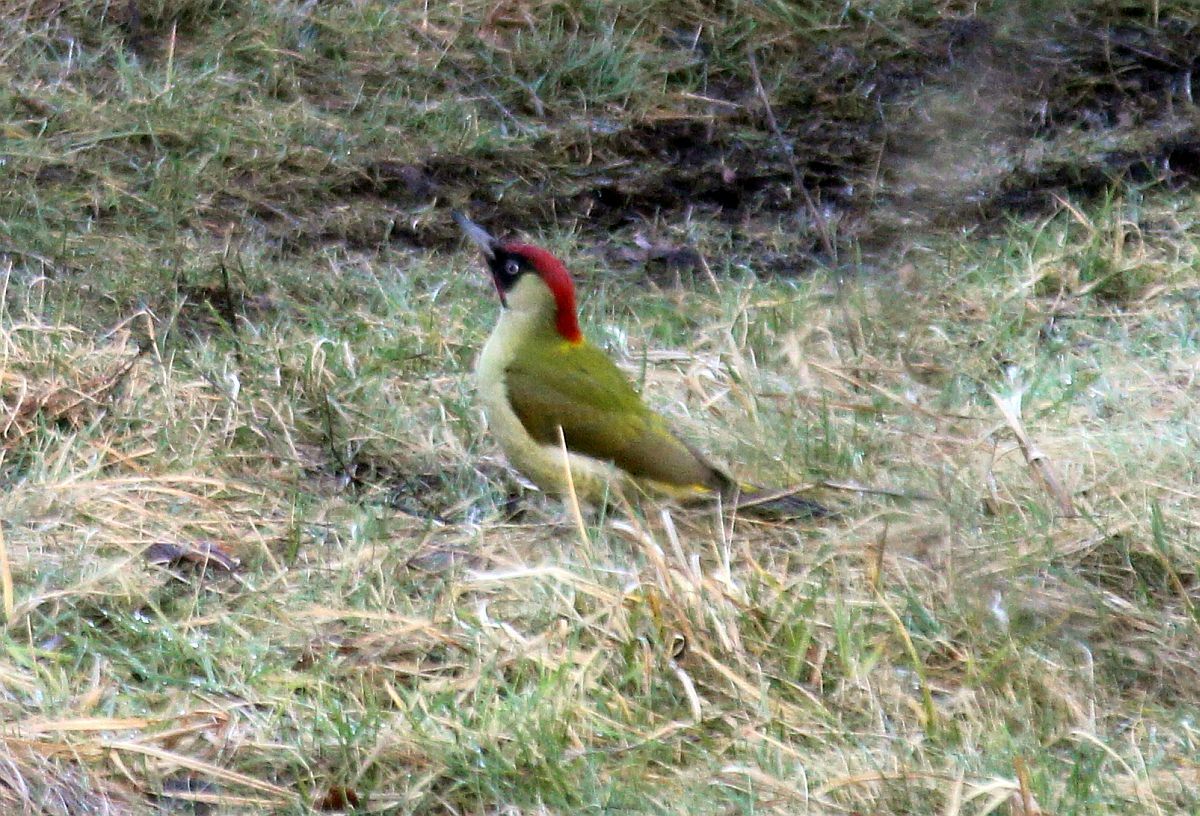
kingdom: Animalia
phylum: Chordata
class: Aves
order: Piciformes
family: Picidae
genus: Picus
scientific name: Picus viridis
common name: European green woodpecker
